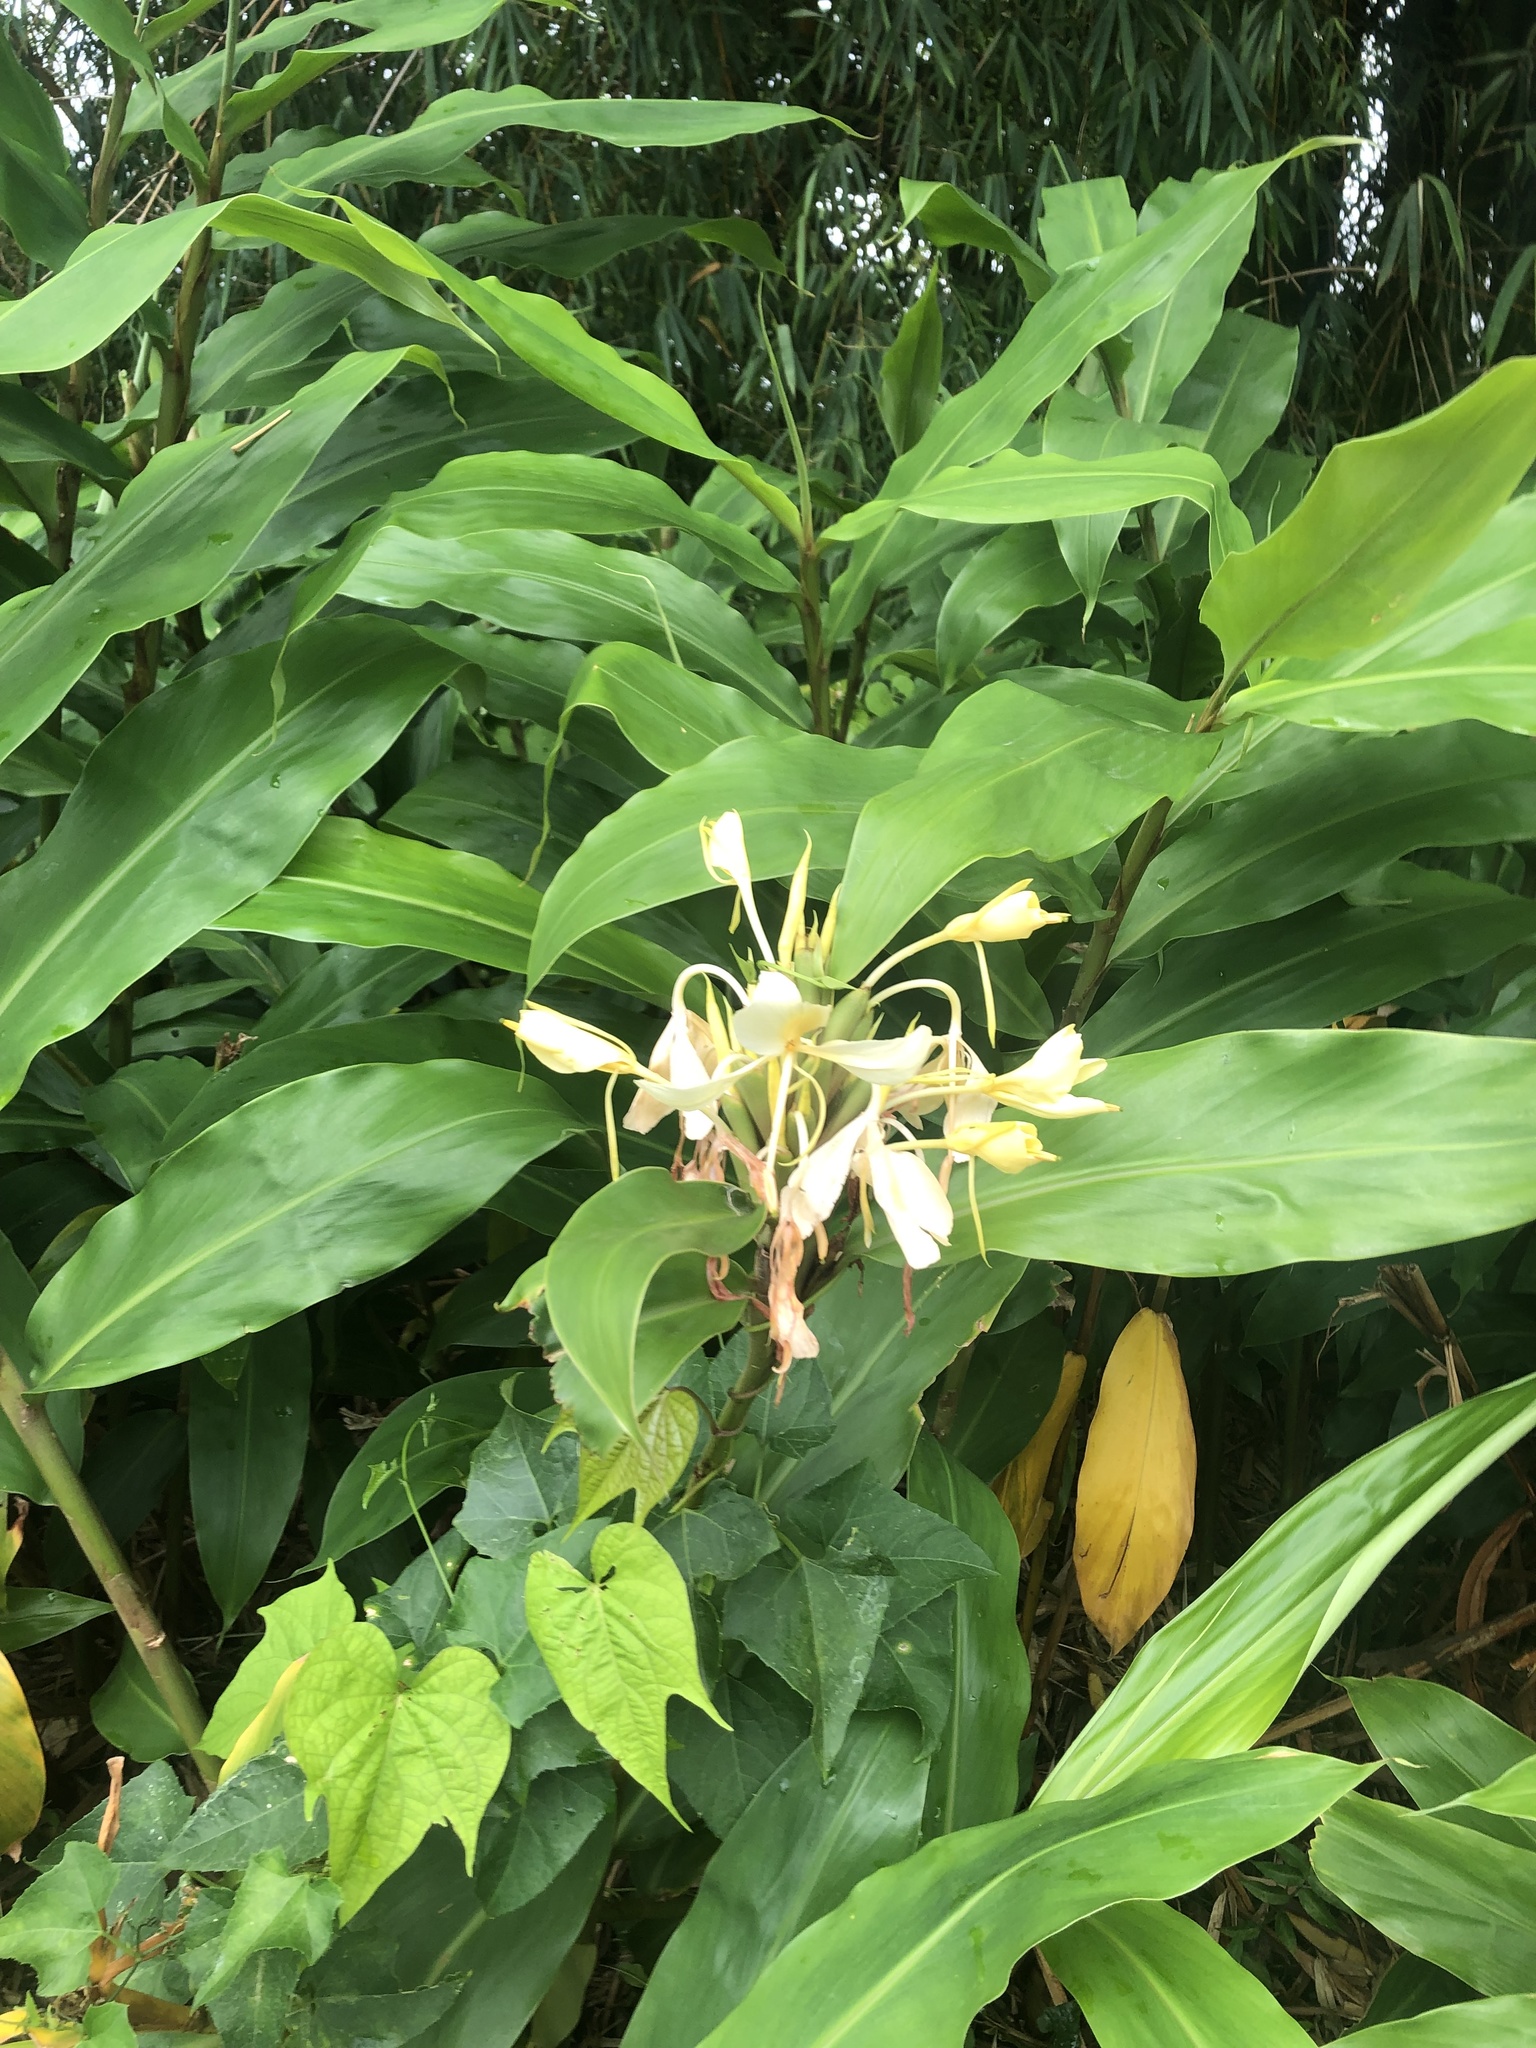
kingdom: Plantae
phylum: Tracheophyta
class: Liliopsida
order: Zingiberales
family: Zingiberaceae
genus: Hedychium
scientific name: Hedychium flavescens
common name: Yellow ginger
